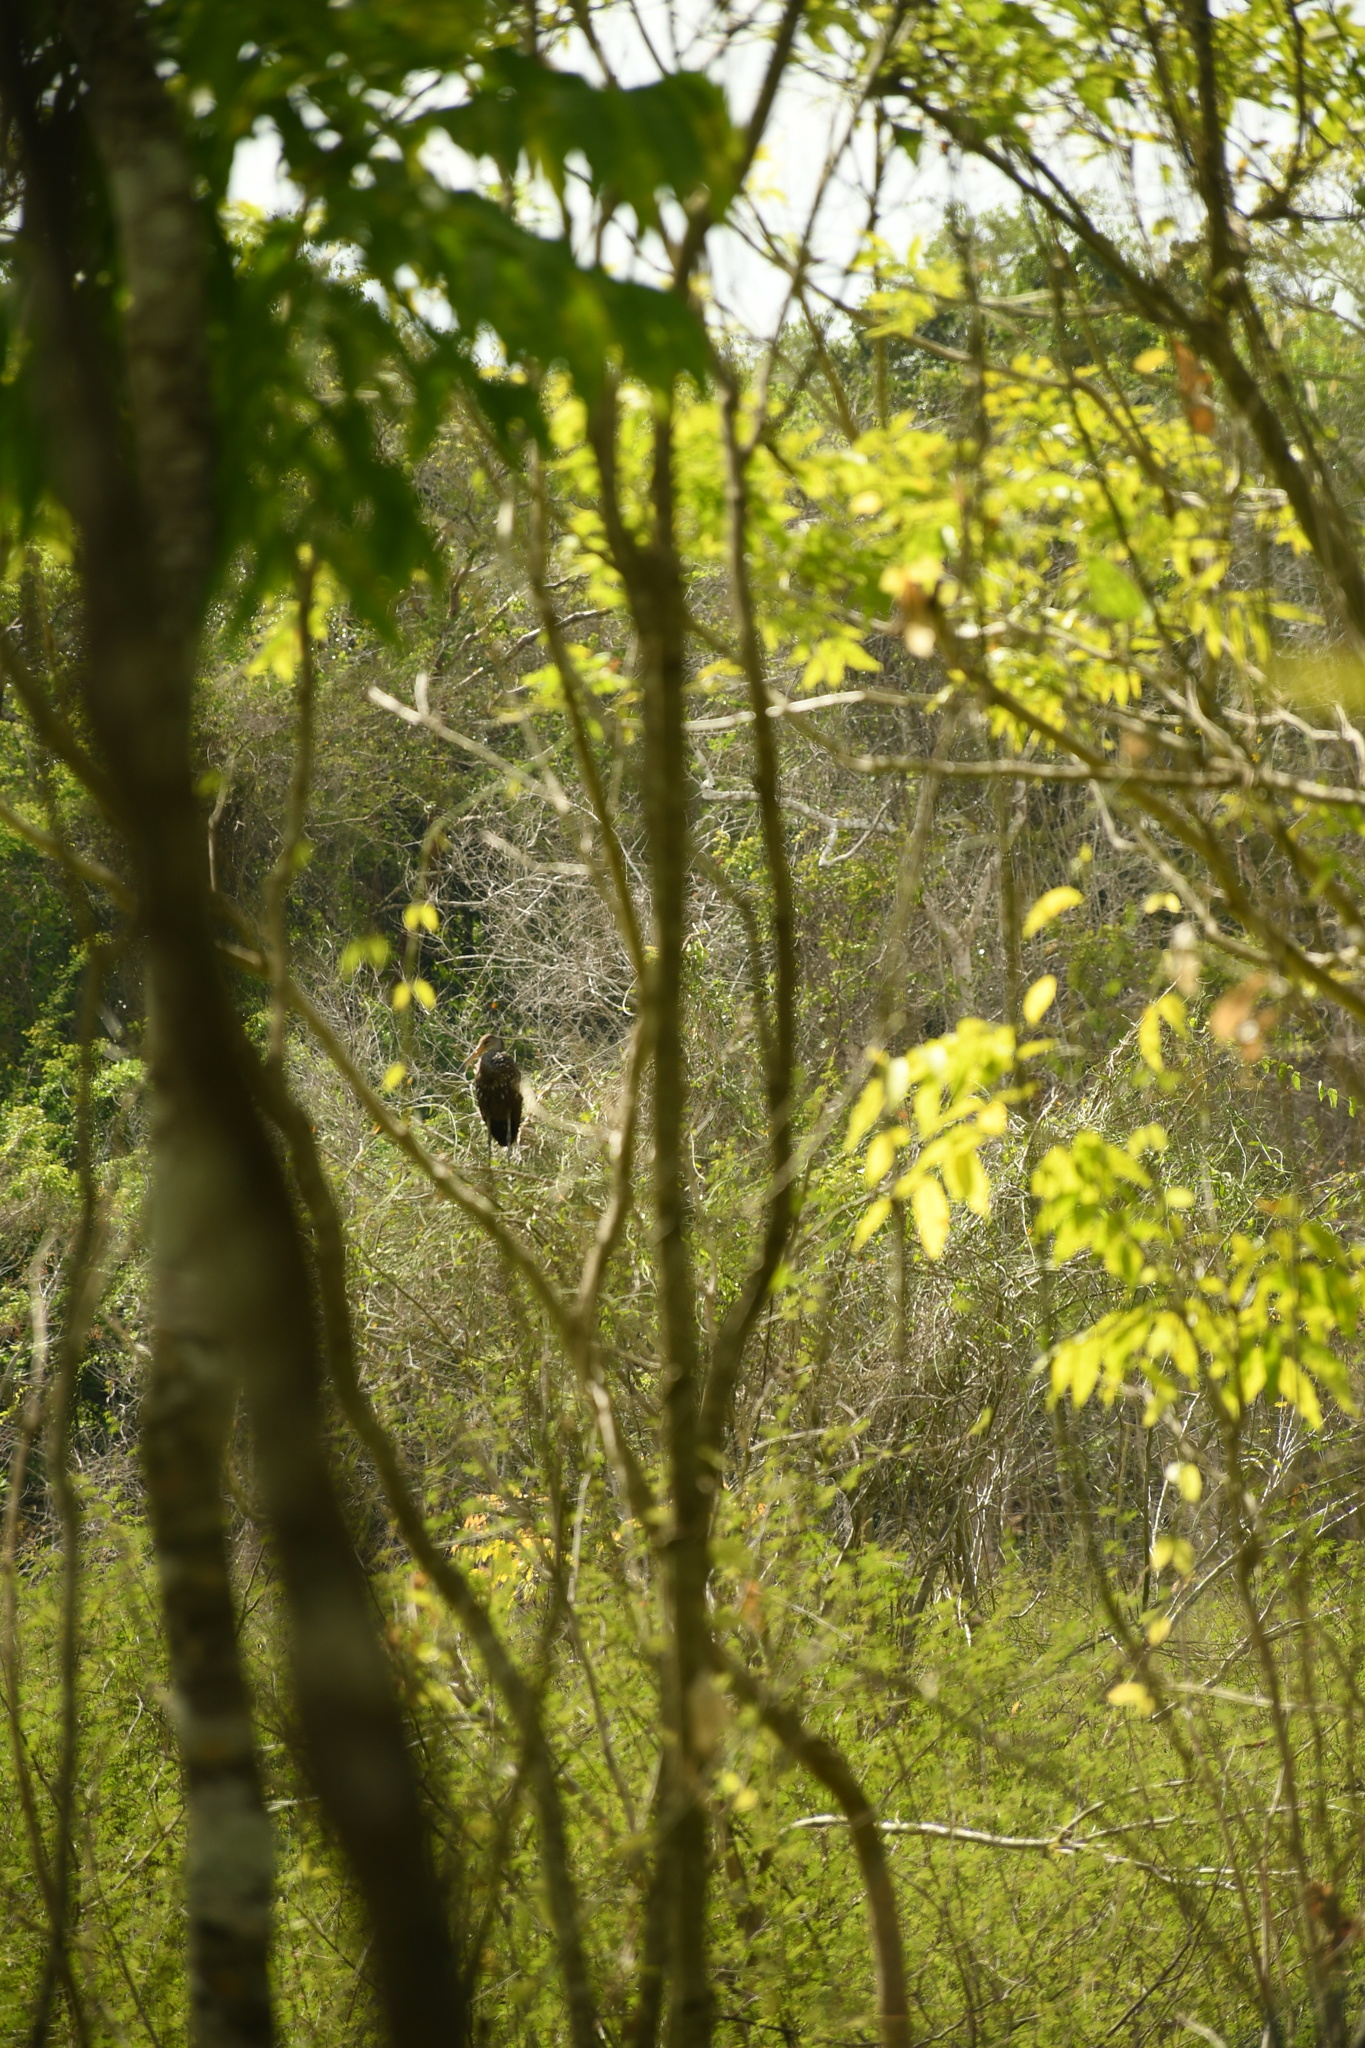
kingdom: Animalia
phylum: Chordata
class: Aves
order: Gruiformes
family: Aramidae
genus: Aramus
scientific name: Aramus guarauna
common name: Limpkin
